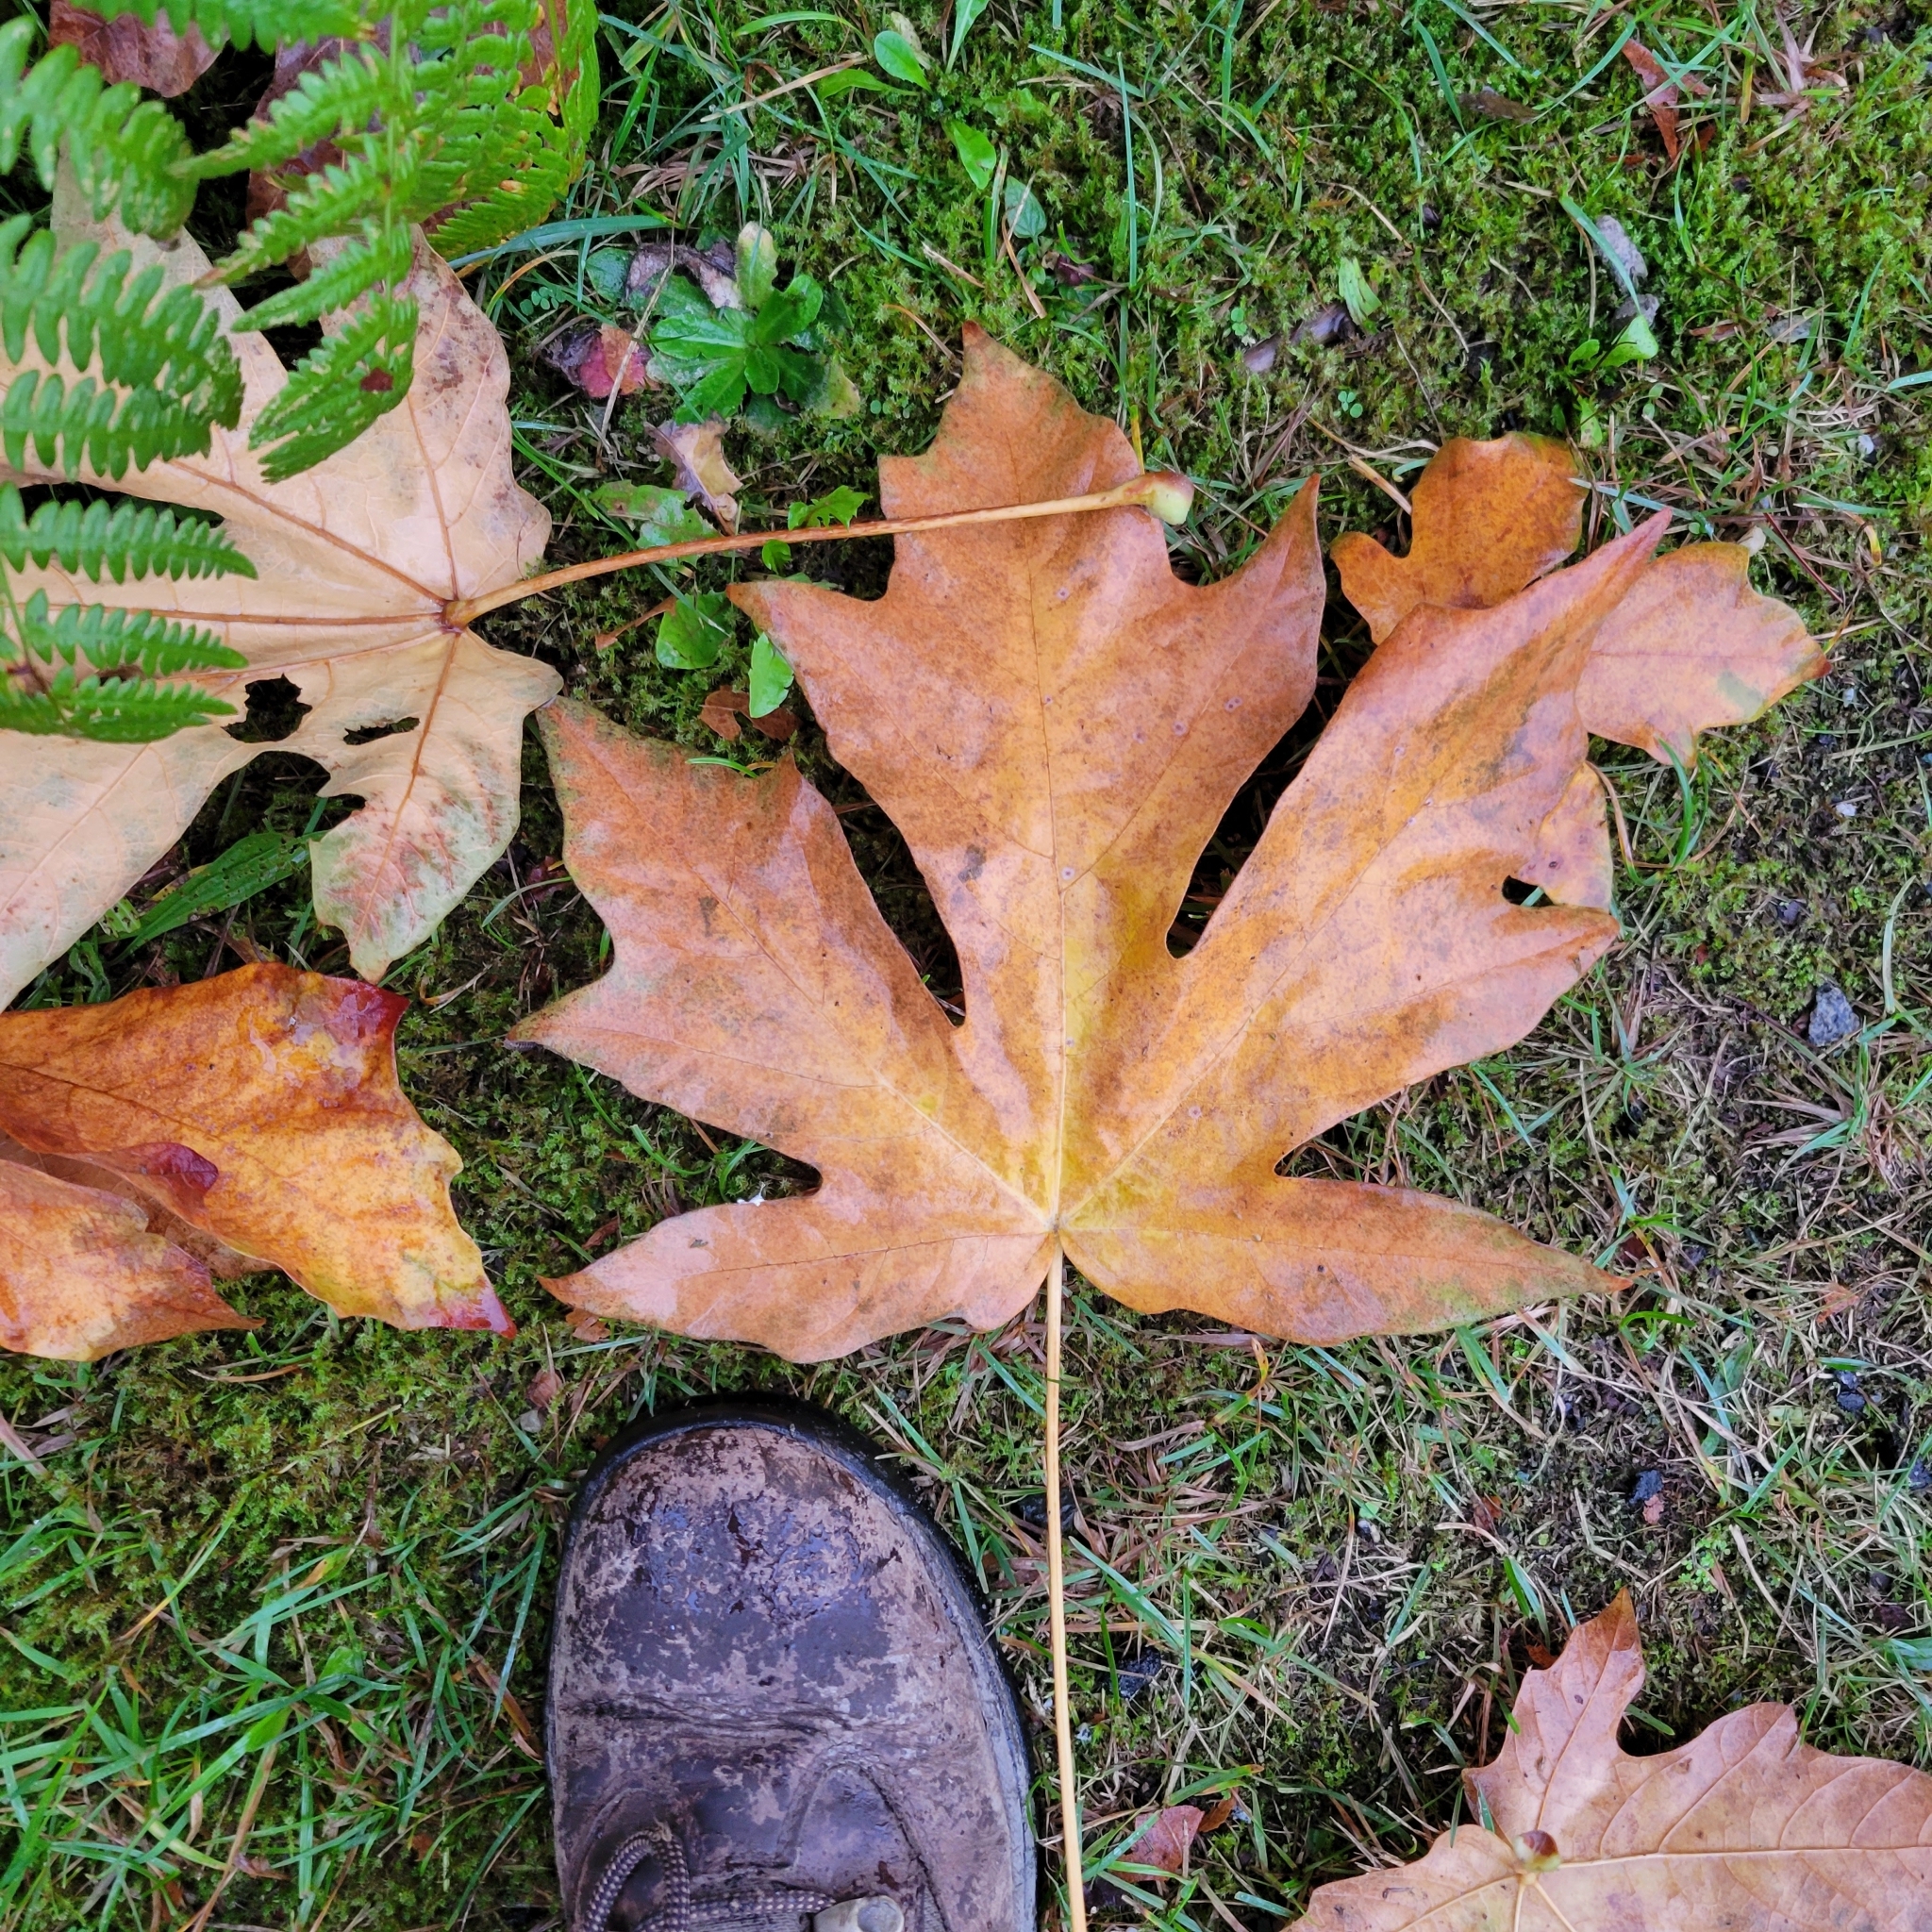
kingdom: Plantae
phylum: Tracheophyta
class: Magnoliopsida
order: Sapindales
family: Sapindaceae
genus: Acer
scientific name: Acer macrophyllum
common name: Oregon maple
